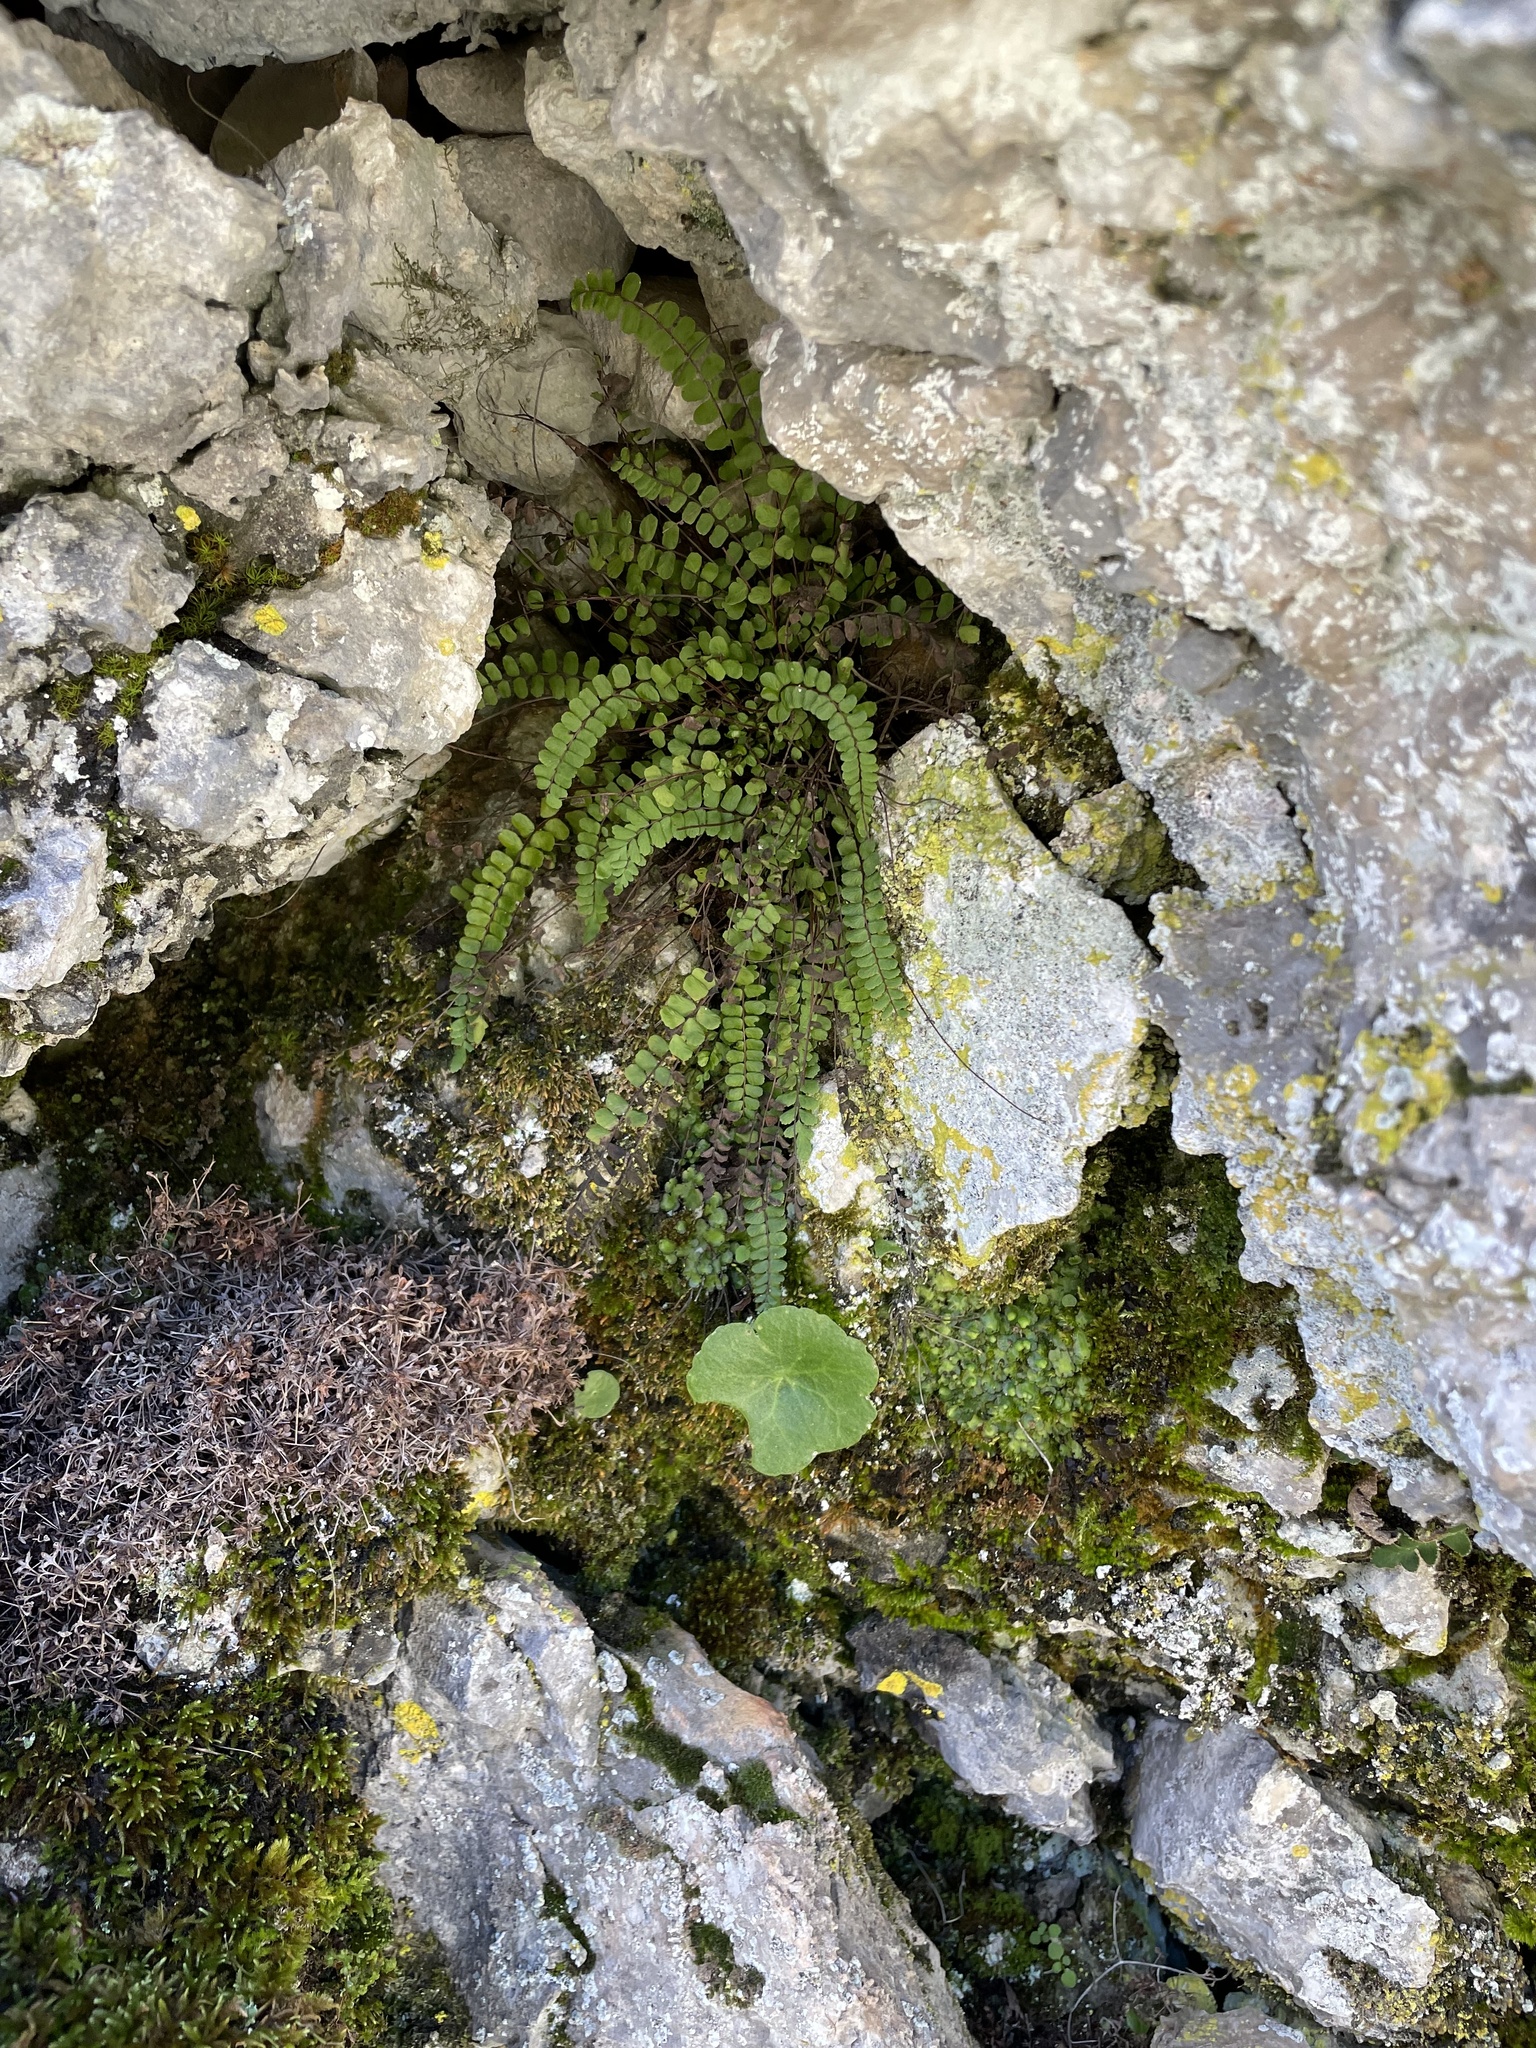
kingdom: Plantae
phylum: Tracheophyta
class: Polypodiopsida
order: Polypodiales
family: Aspleniaceae
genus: Asplenium
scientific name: Asplenium trichomanes
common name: Maidenhair spleenwort
